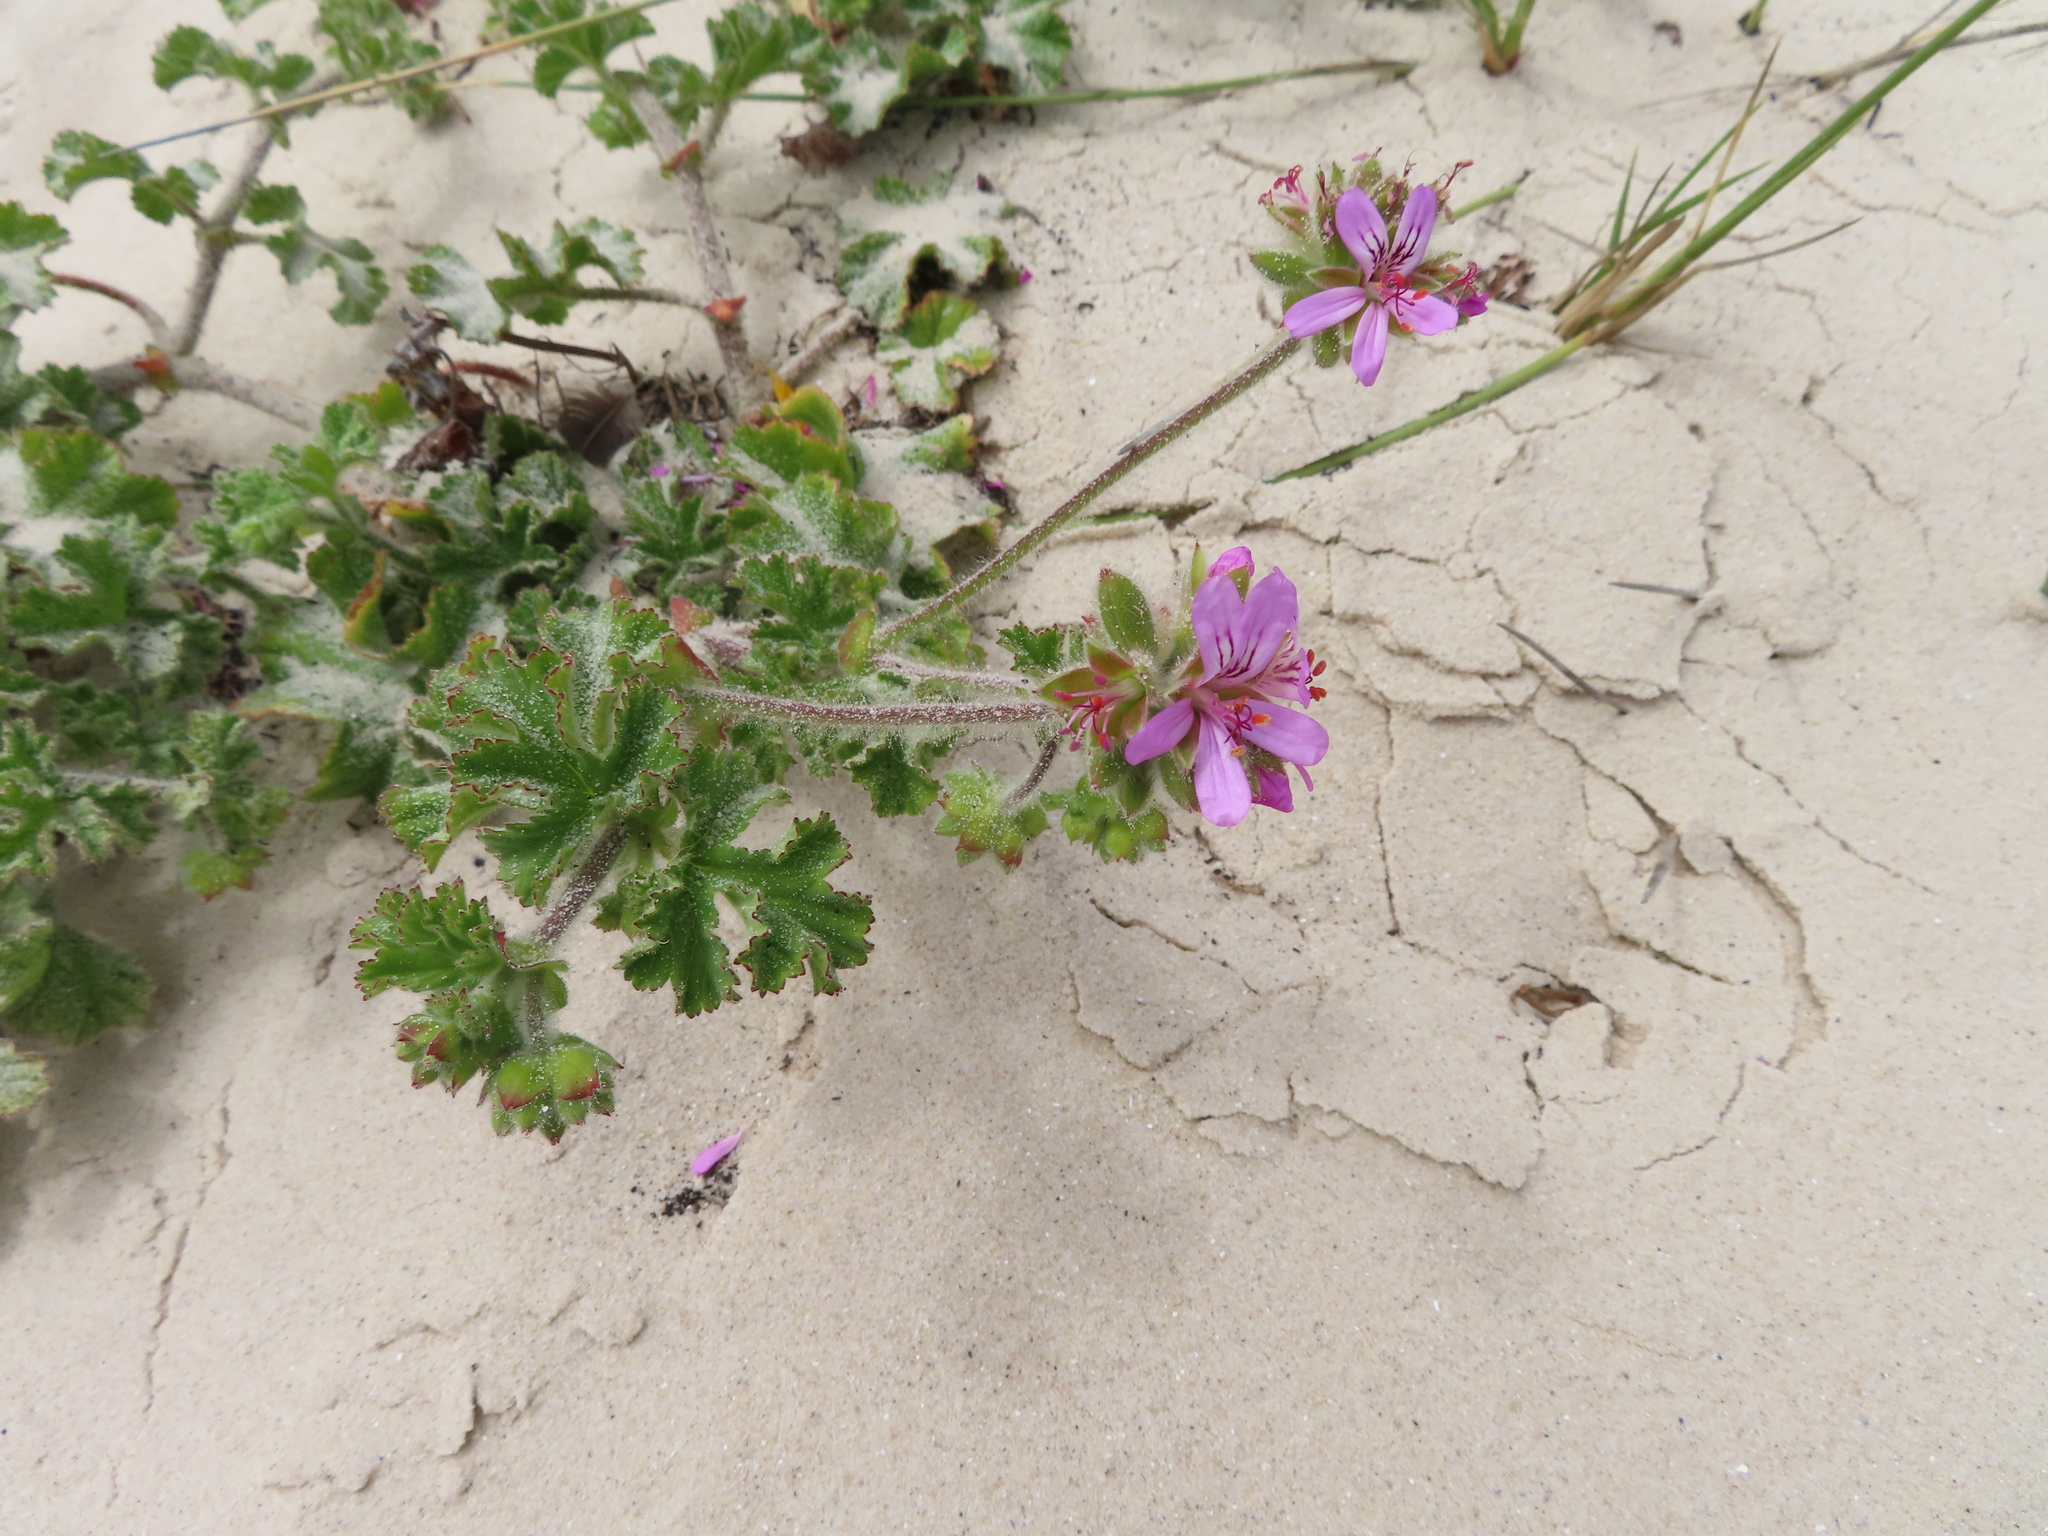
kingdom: Plantae
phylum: Tracheophyta
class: Magnoliopsida
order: Geraniales
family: Geraniaceae
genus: Pelargonium
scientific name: Pelargonium capitatum
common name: Rose scented geranium
